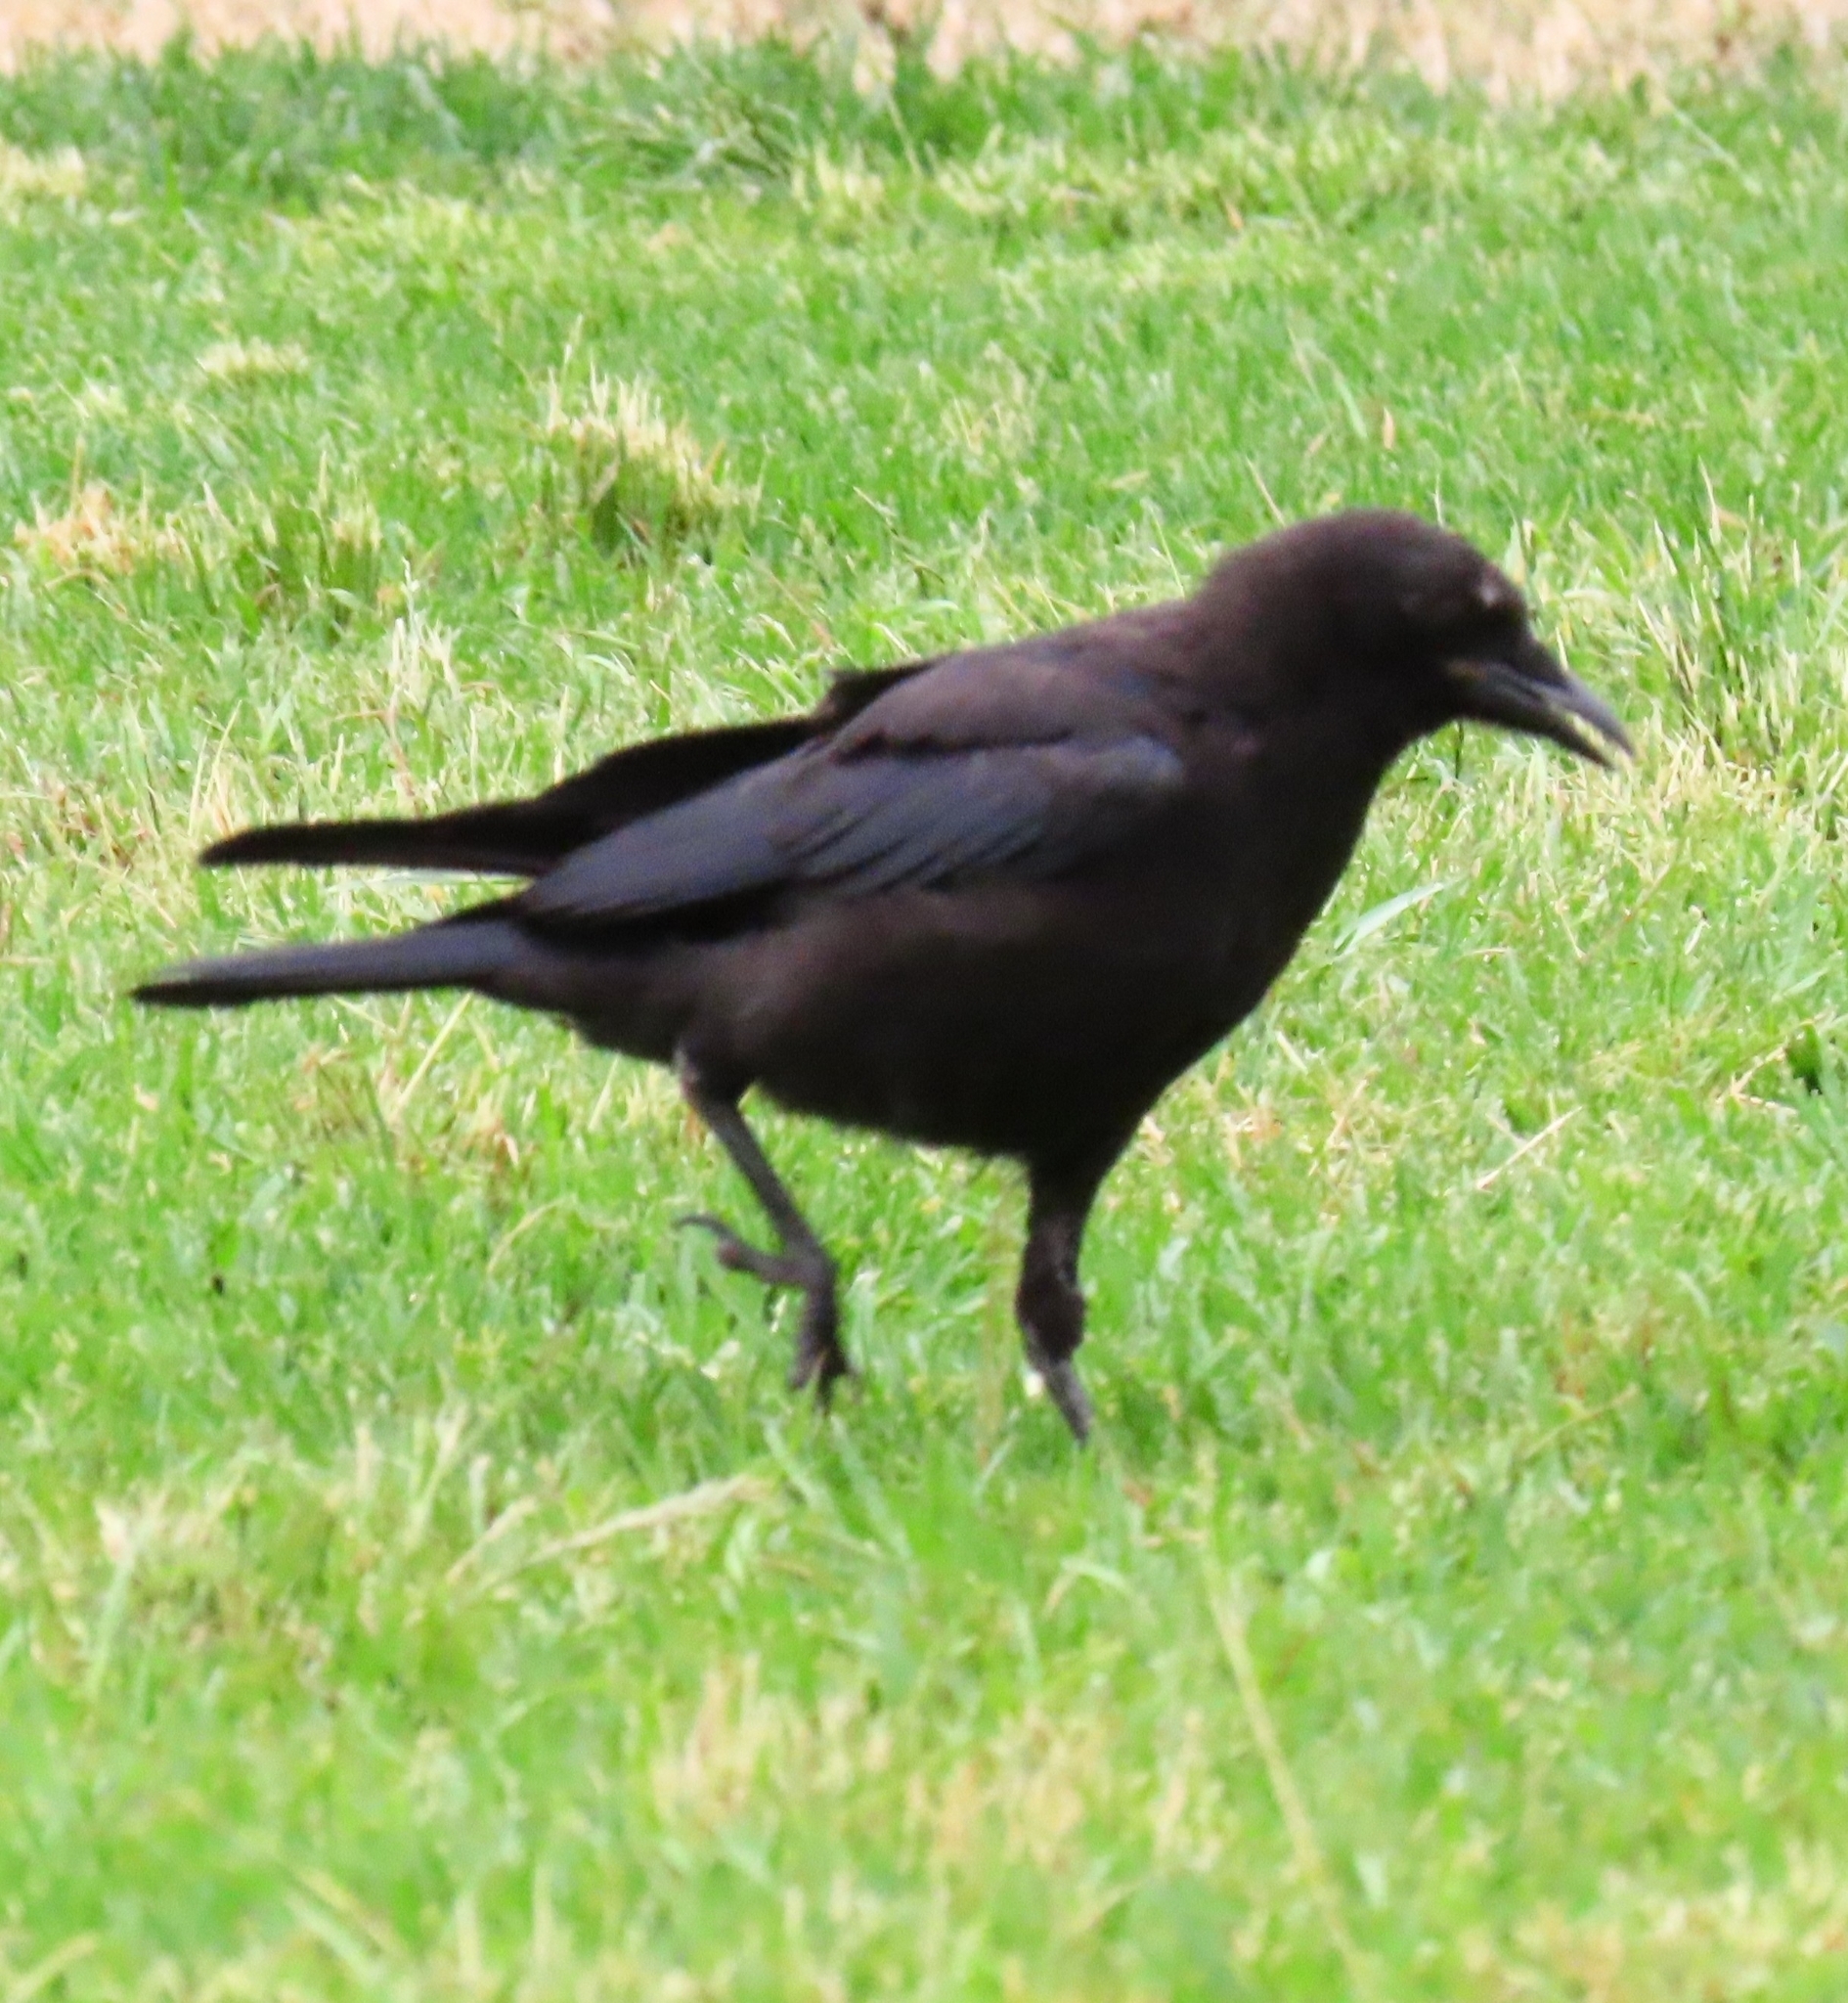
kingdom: Animalia
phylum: Chordata
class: Aves
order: Passeriformes
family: Corvidae
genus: Corvus
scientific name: Corvus brachyrhynchos
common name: American crow
